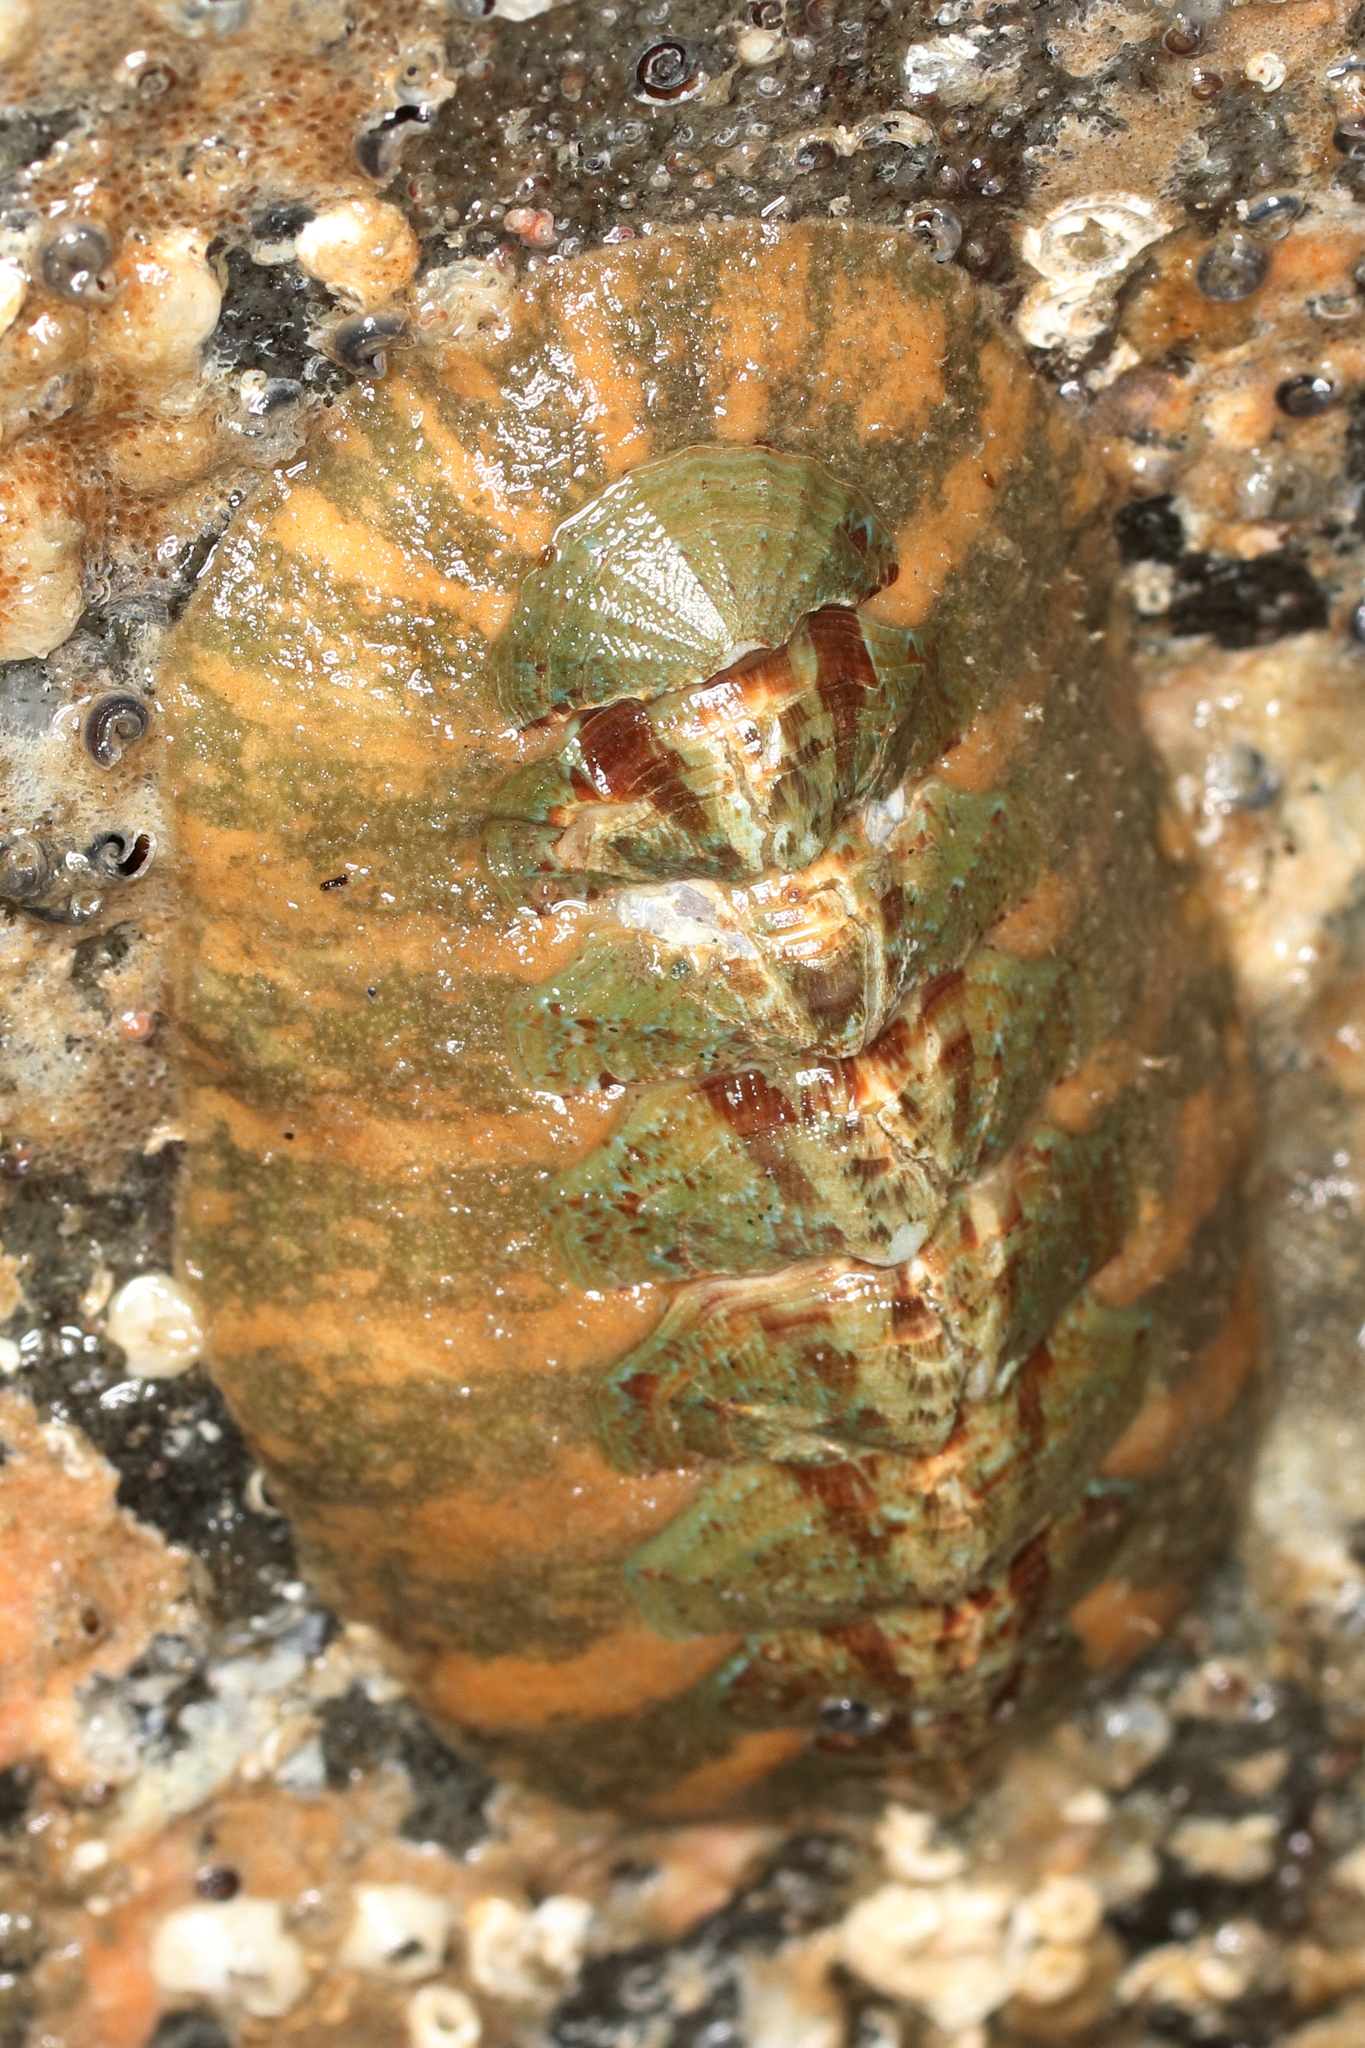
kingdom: Animalia
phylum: Mollusca
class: Polyplacophora
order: Chitonida
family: Mopaliidae
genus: Mopalia
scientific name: Mopalia swanii
